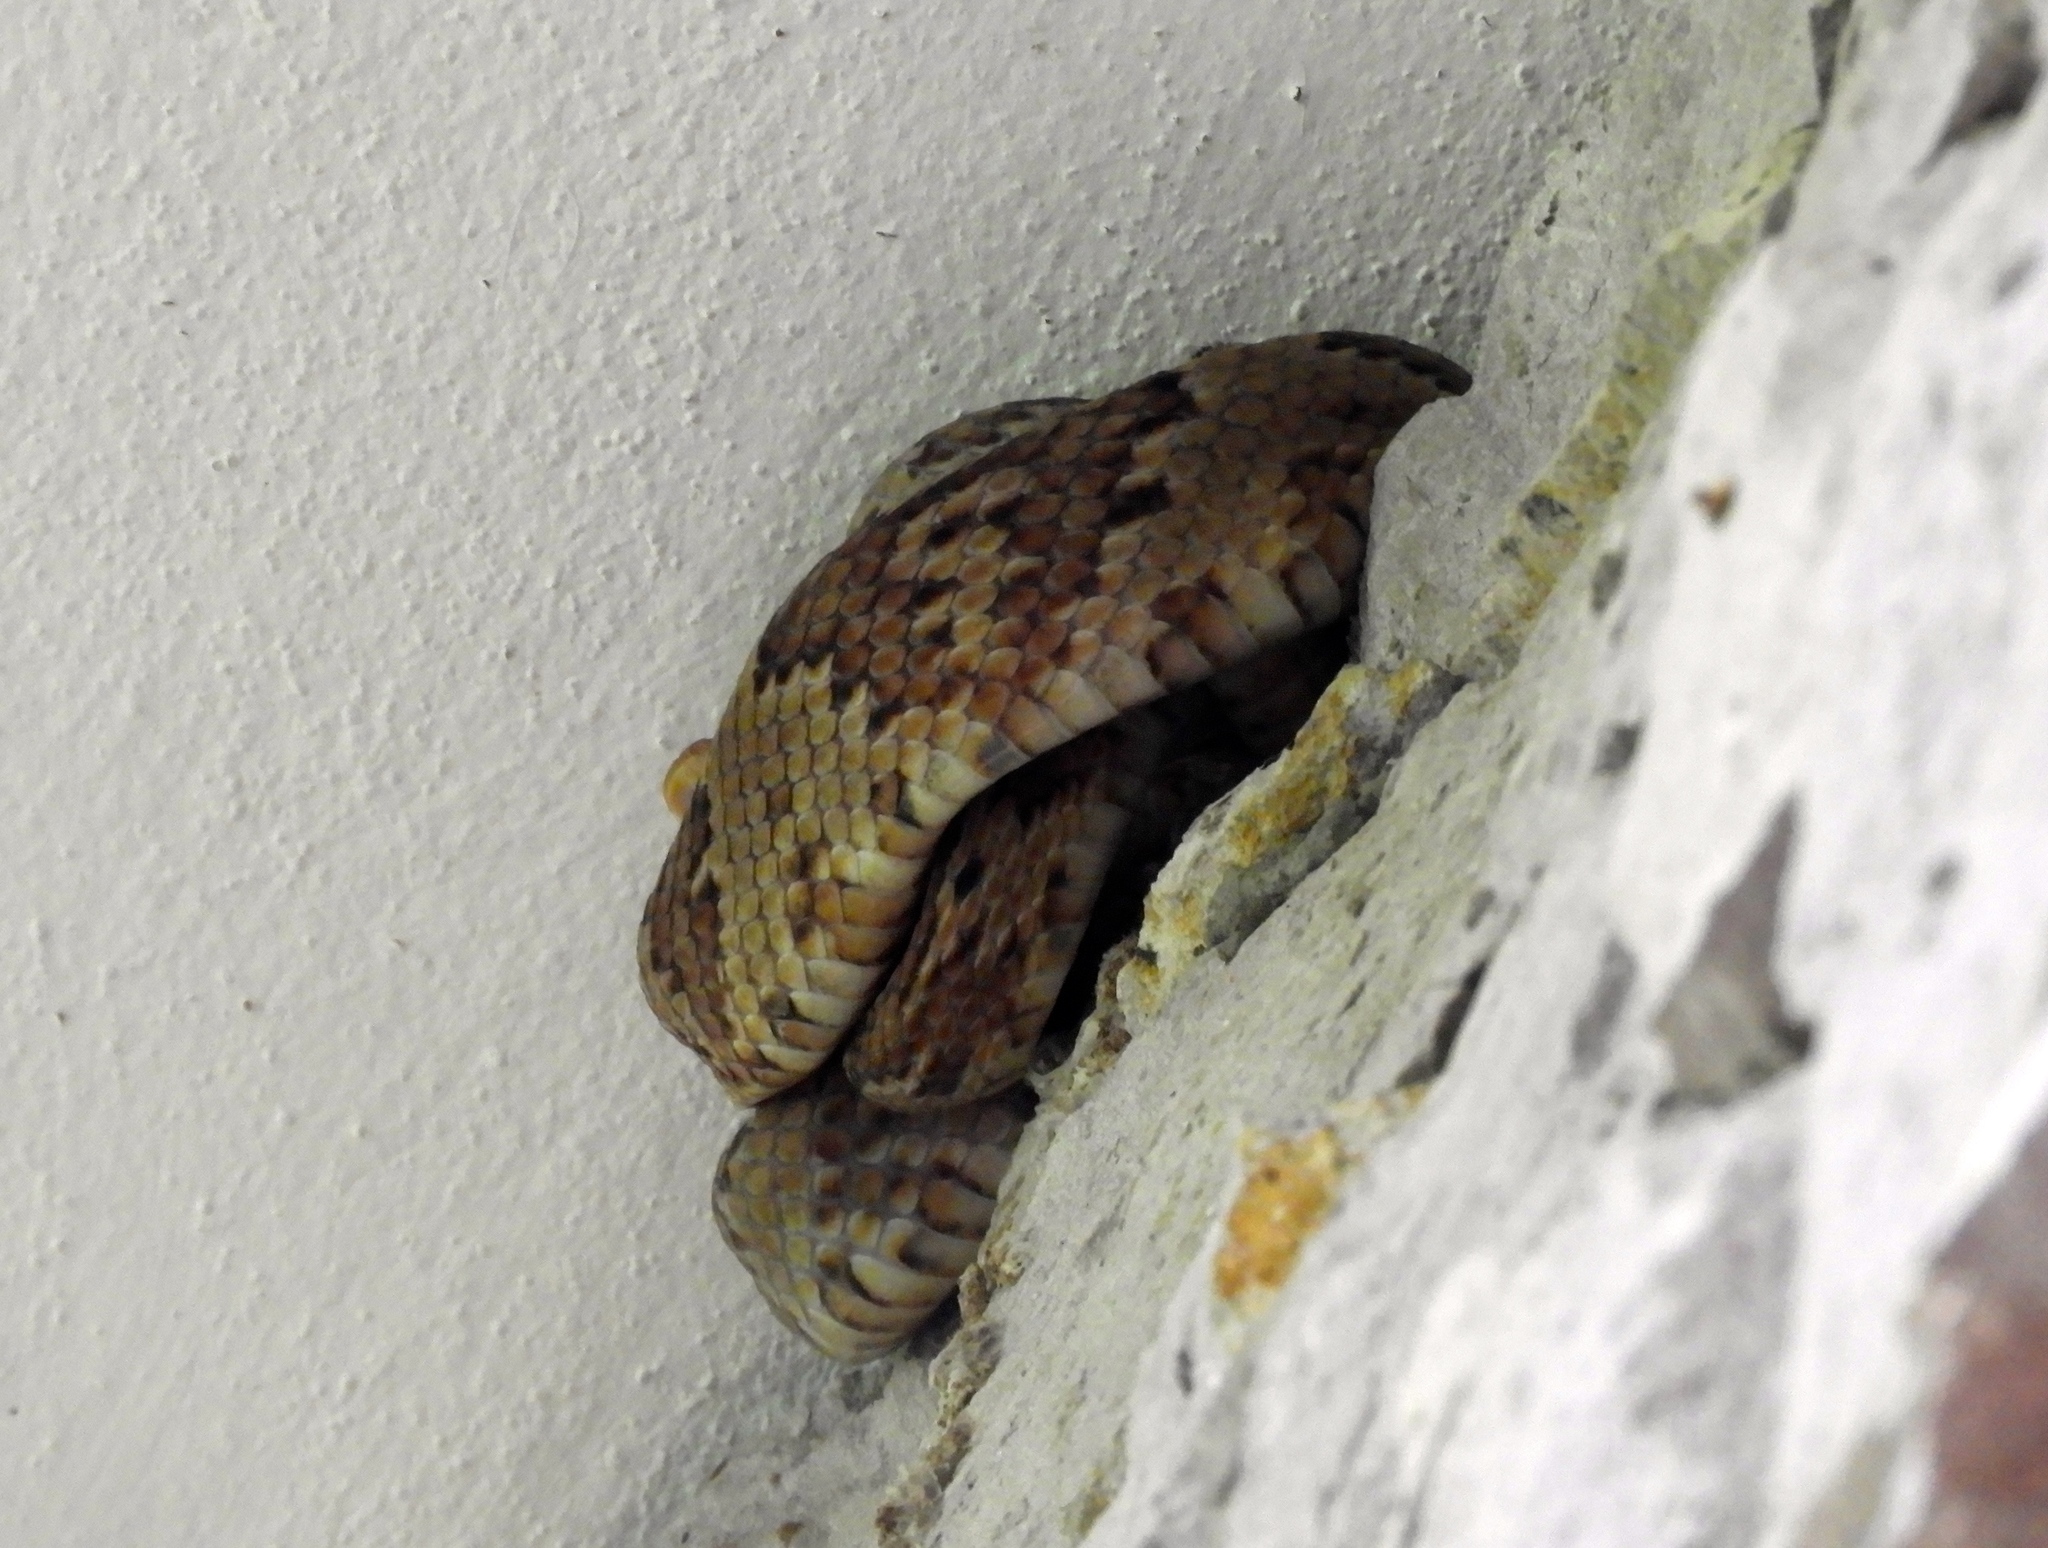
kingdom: Animalia
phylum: Chordata
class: Squamata
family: Colubridae
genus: Trimorphodon
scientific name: Trimorphodon paucimaculatus
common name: Sinaloan lyresnake
